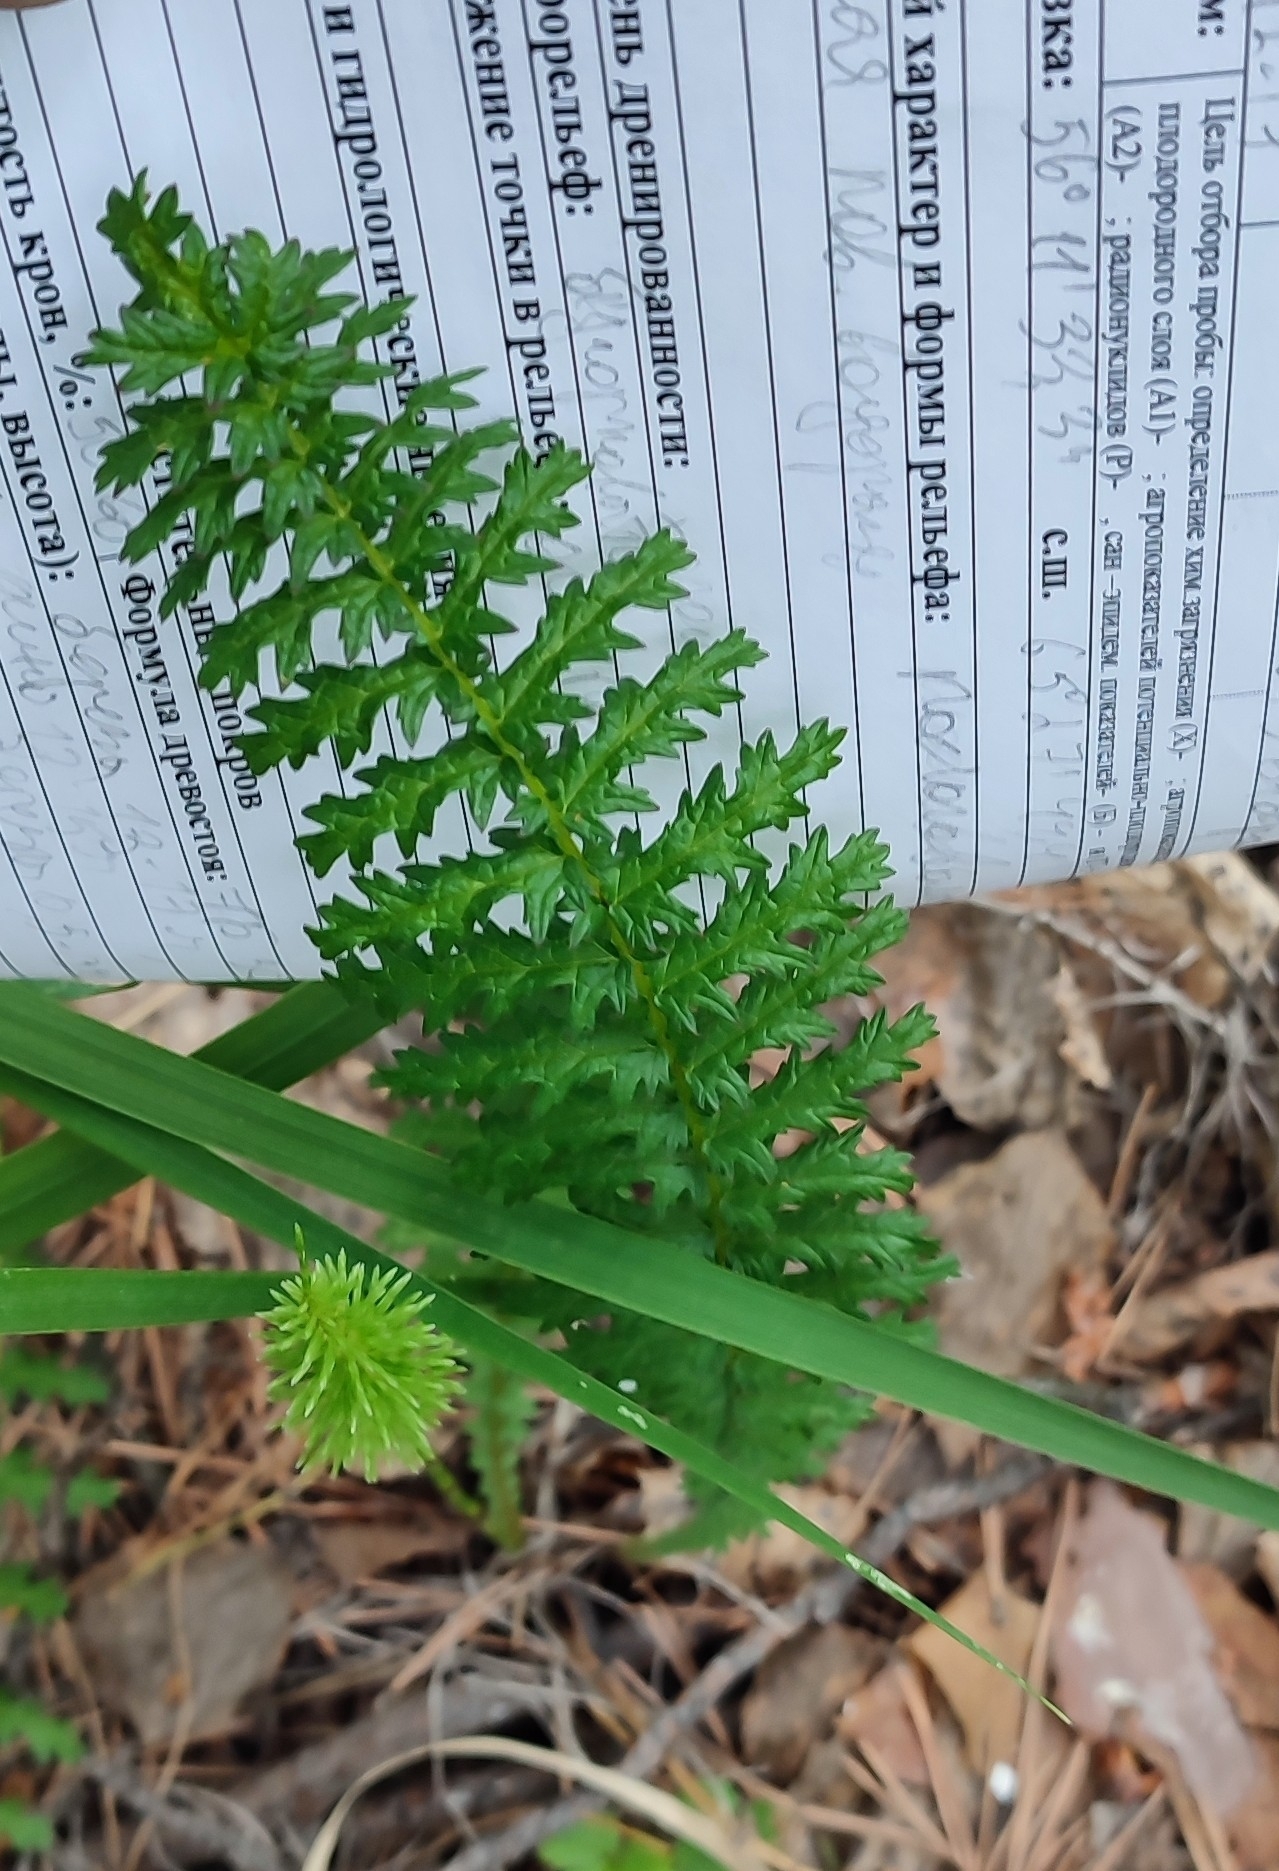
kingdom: Plantae
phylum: Tracheophyta
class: Magnoliopsida
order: Rosales
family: Rosaceae
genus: Filipendula
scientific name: Filipendula vulgaris
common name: Dropwort
